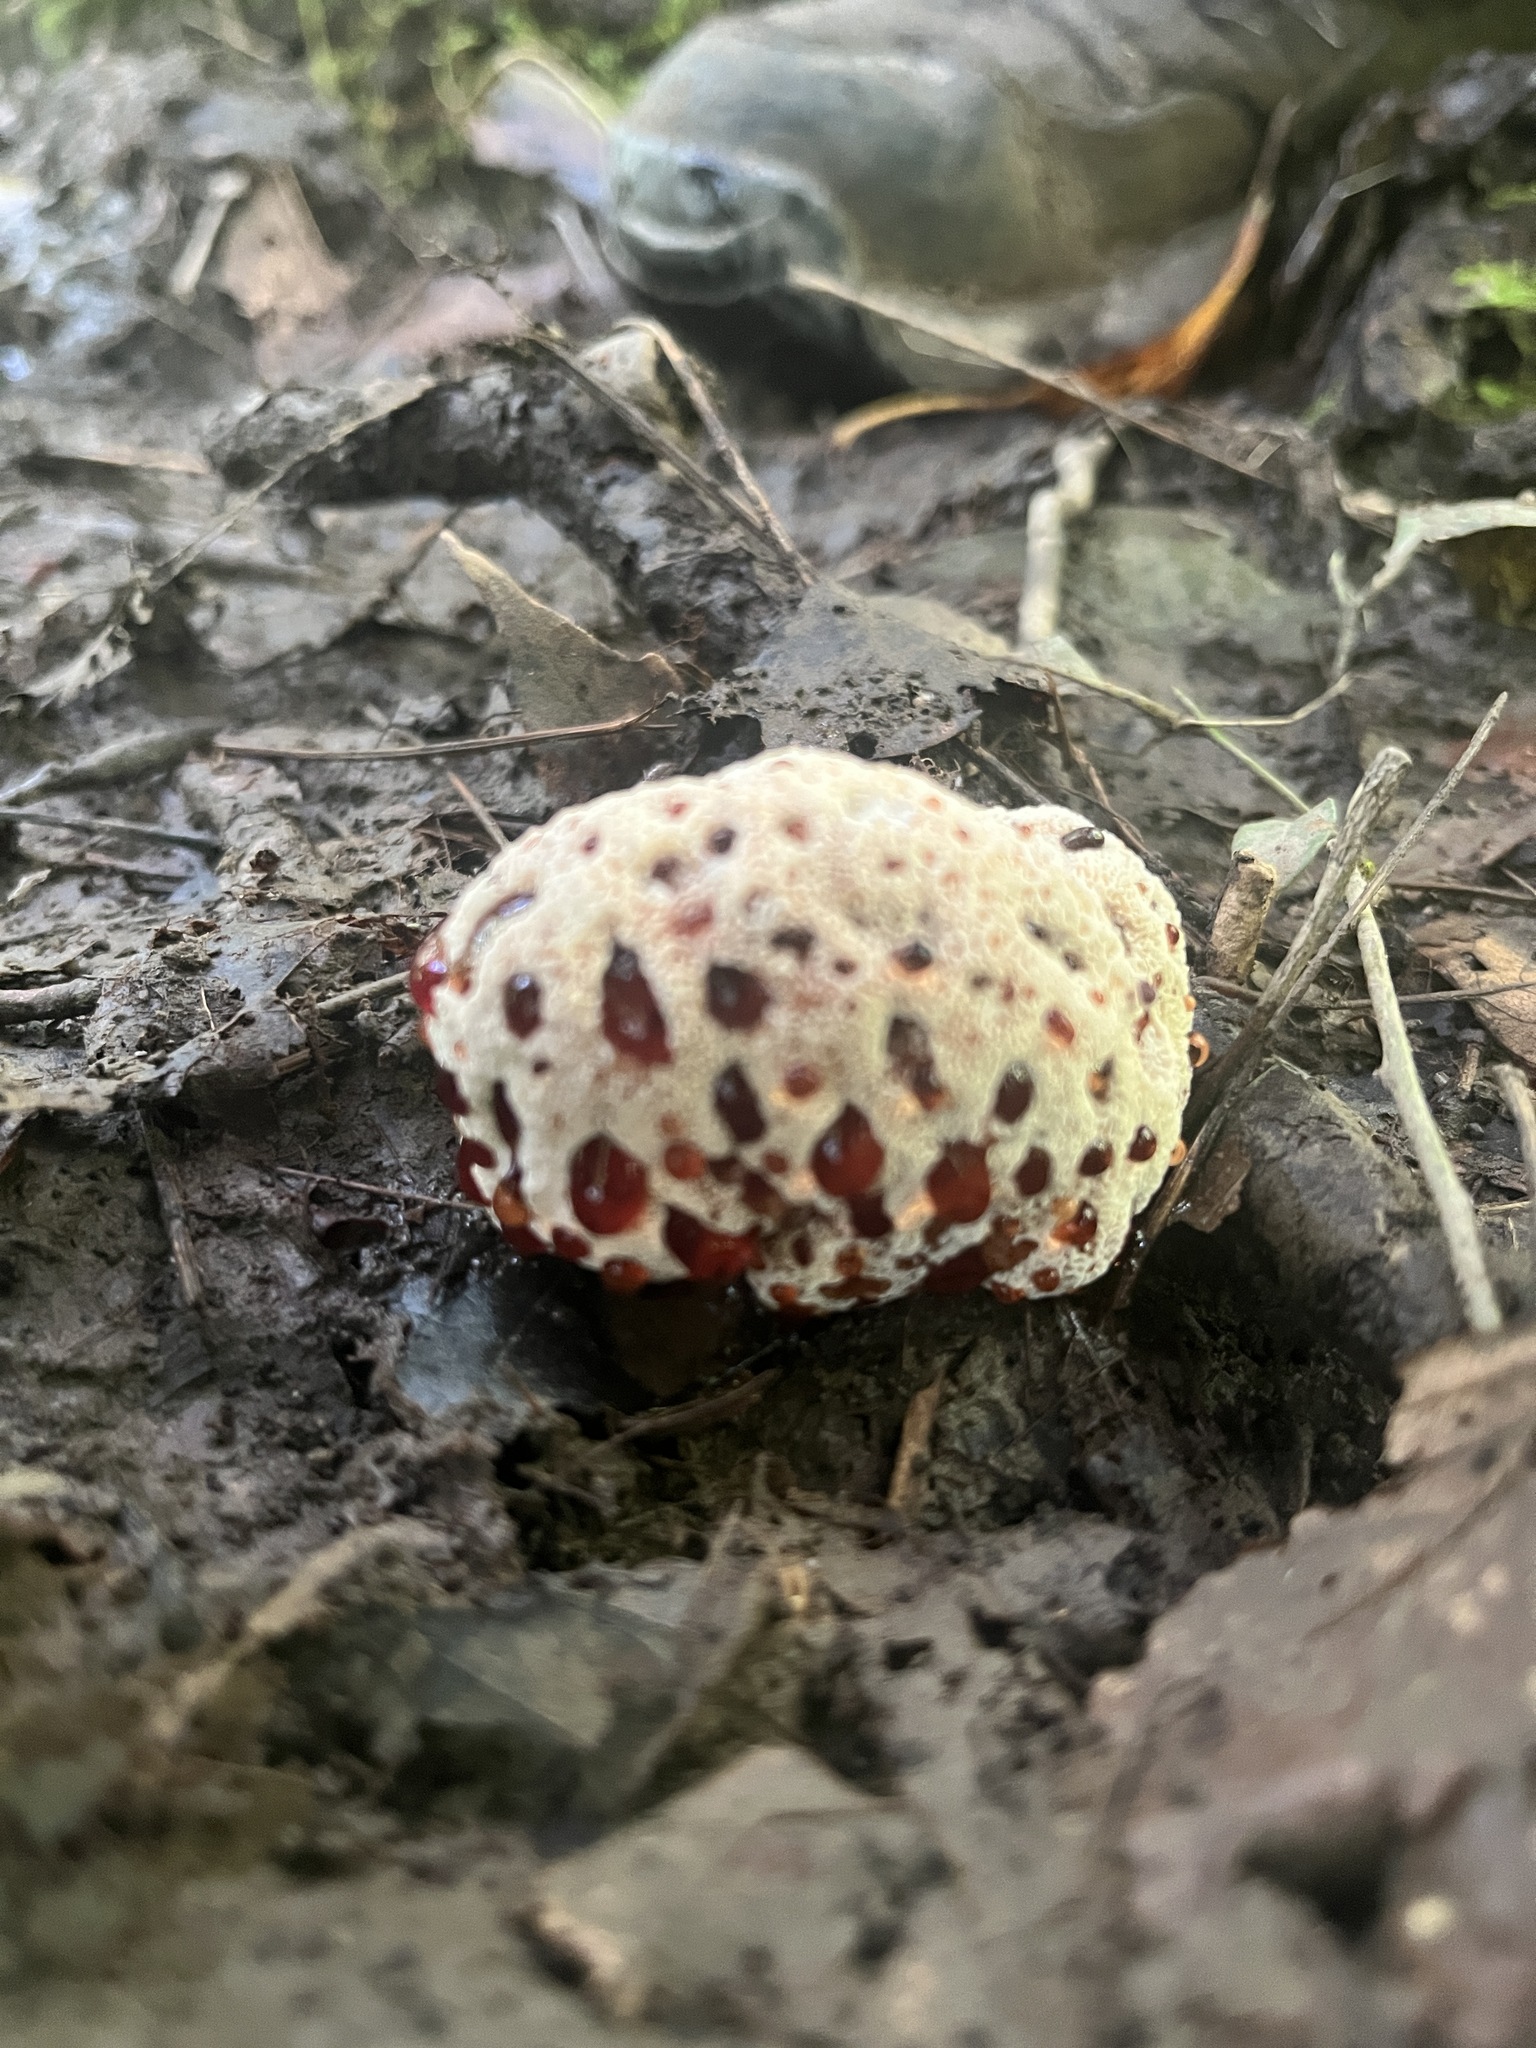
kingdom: Fungi
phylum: Basidiomycota
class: Agaricomycetes
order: Polyporales
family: Podoscyphaceae
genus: Abortiporus
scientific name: Abortiporus biennis
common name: Blushing rosette
